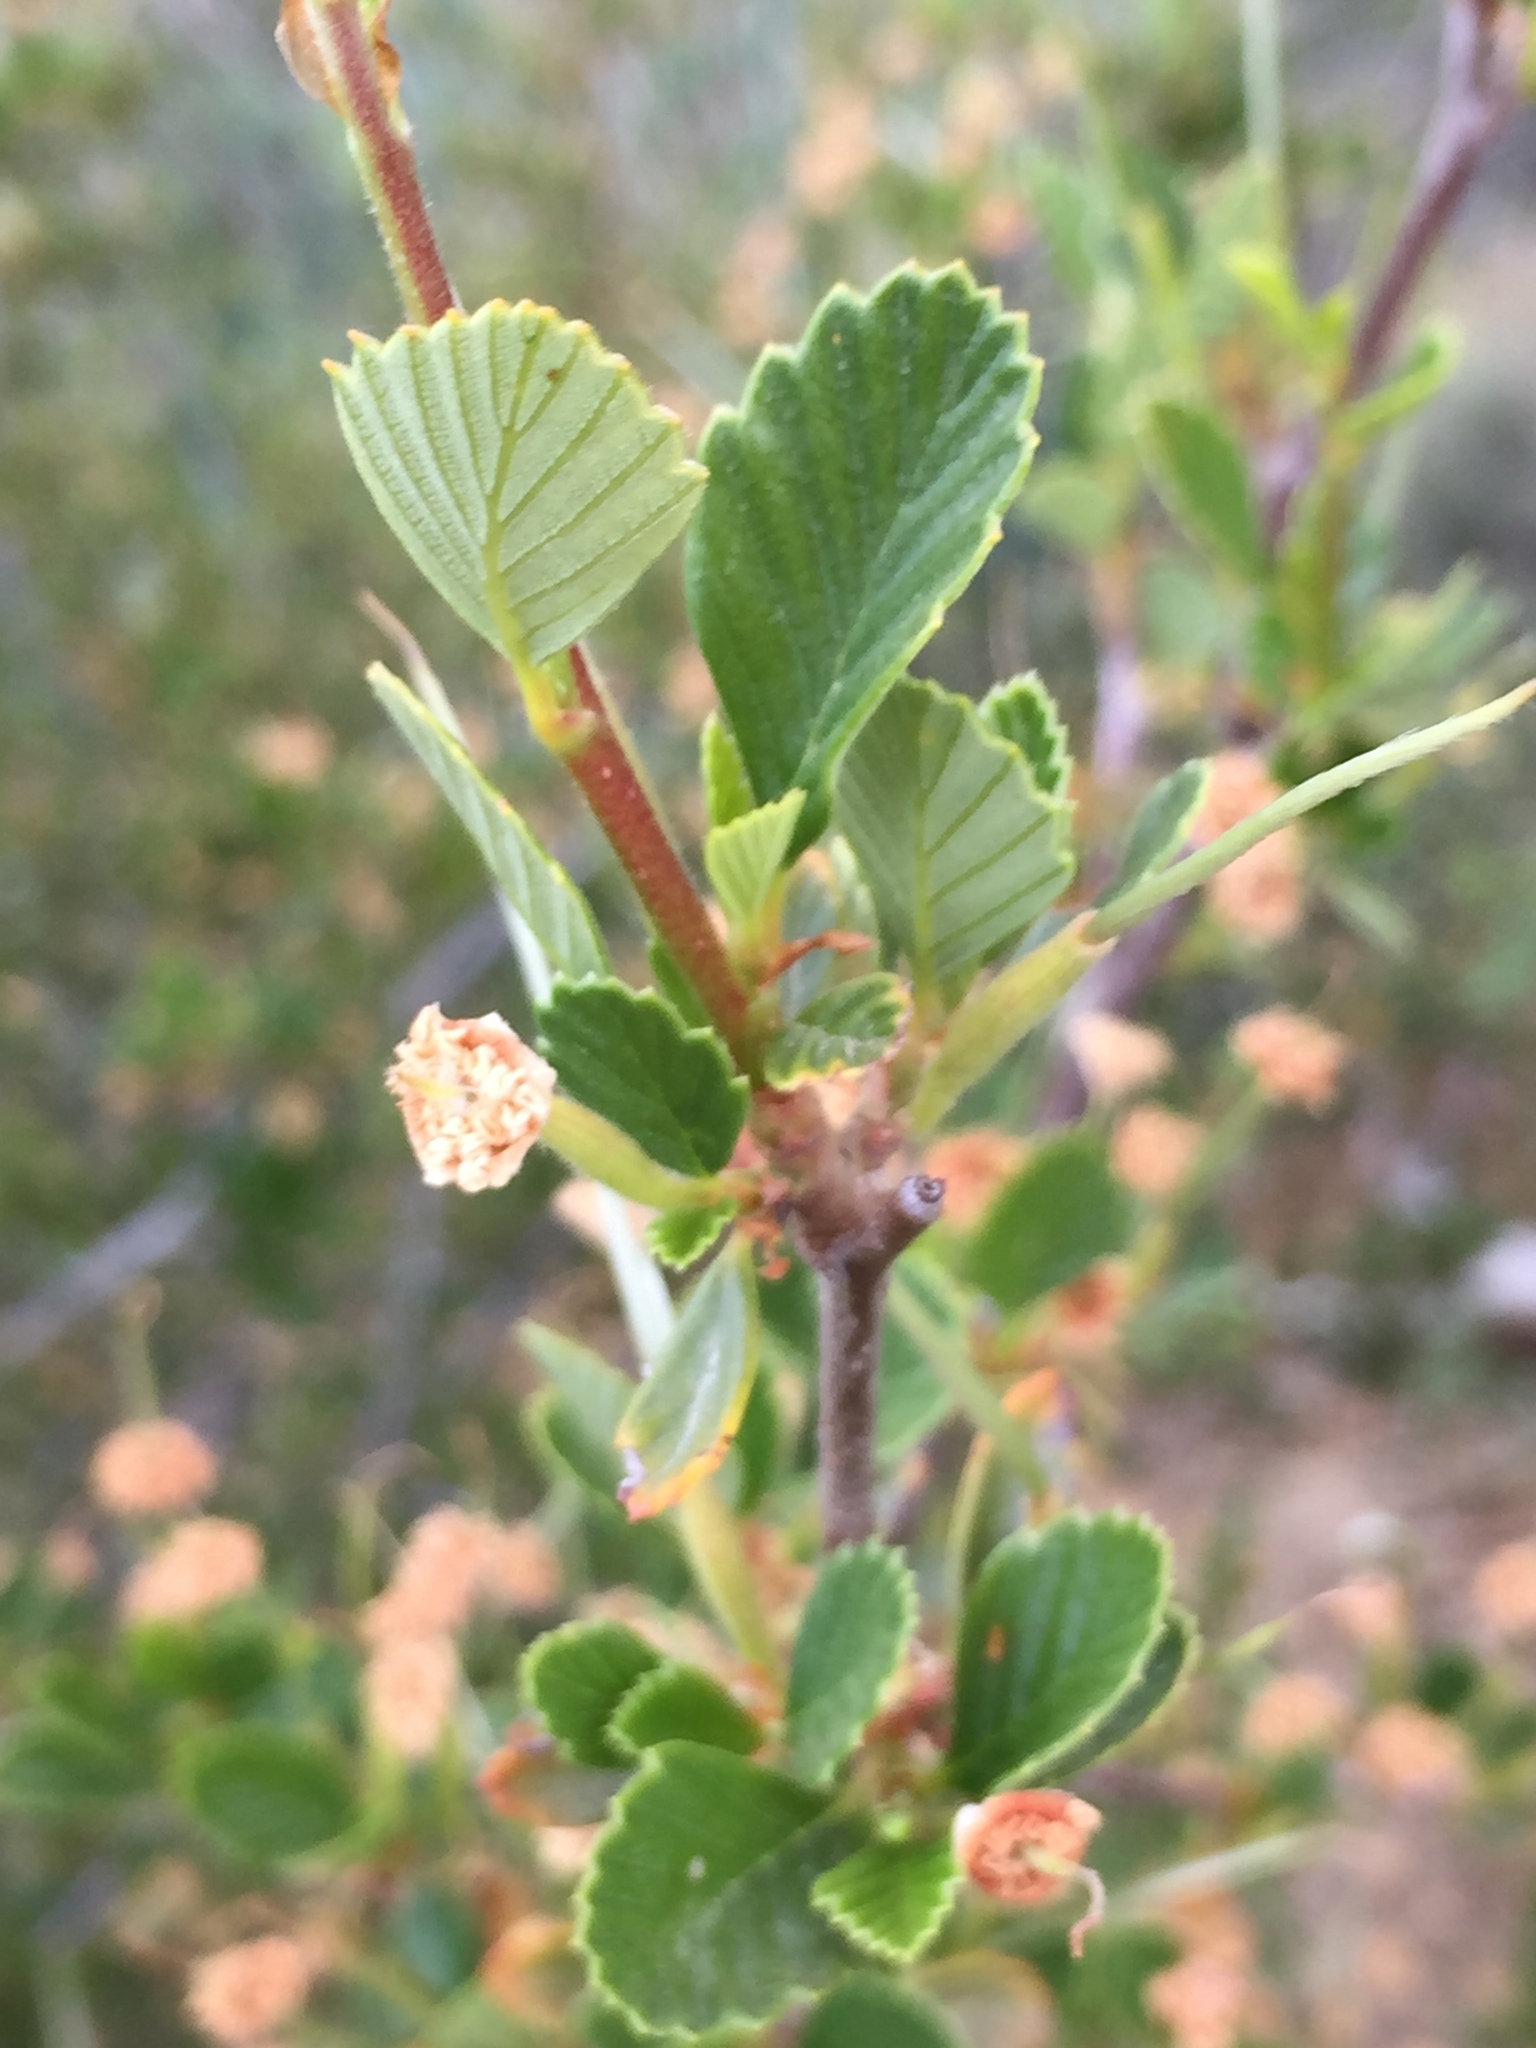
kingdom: Plantae
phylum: Tracheophyta
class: Magnoliopsida
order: Rosales
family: Rosaceae
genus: Cercocarpus
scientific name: Cercocarpus betuloides
